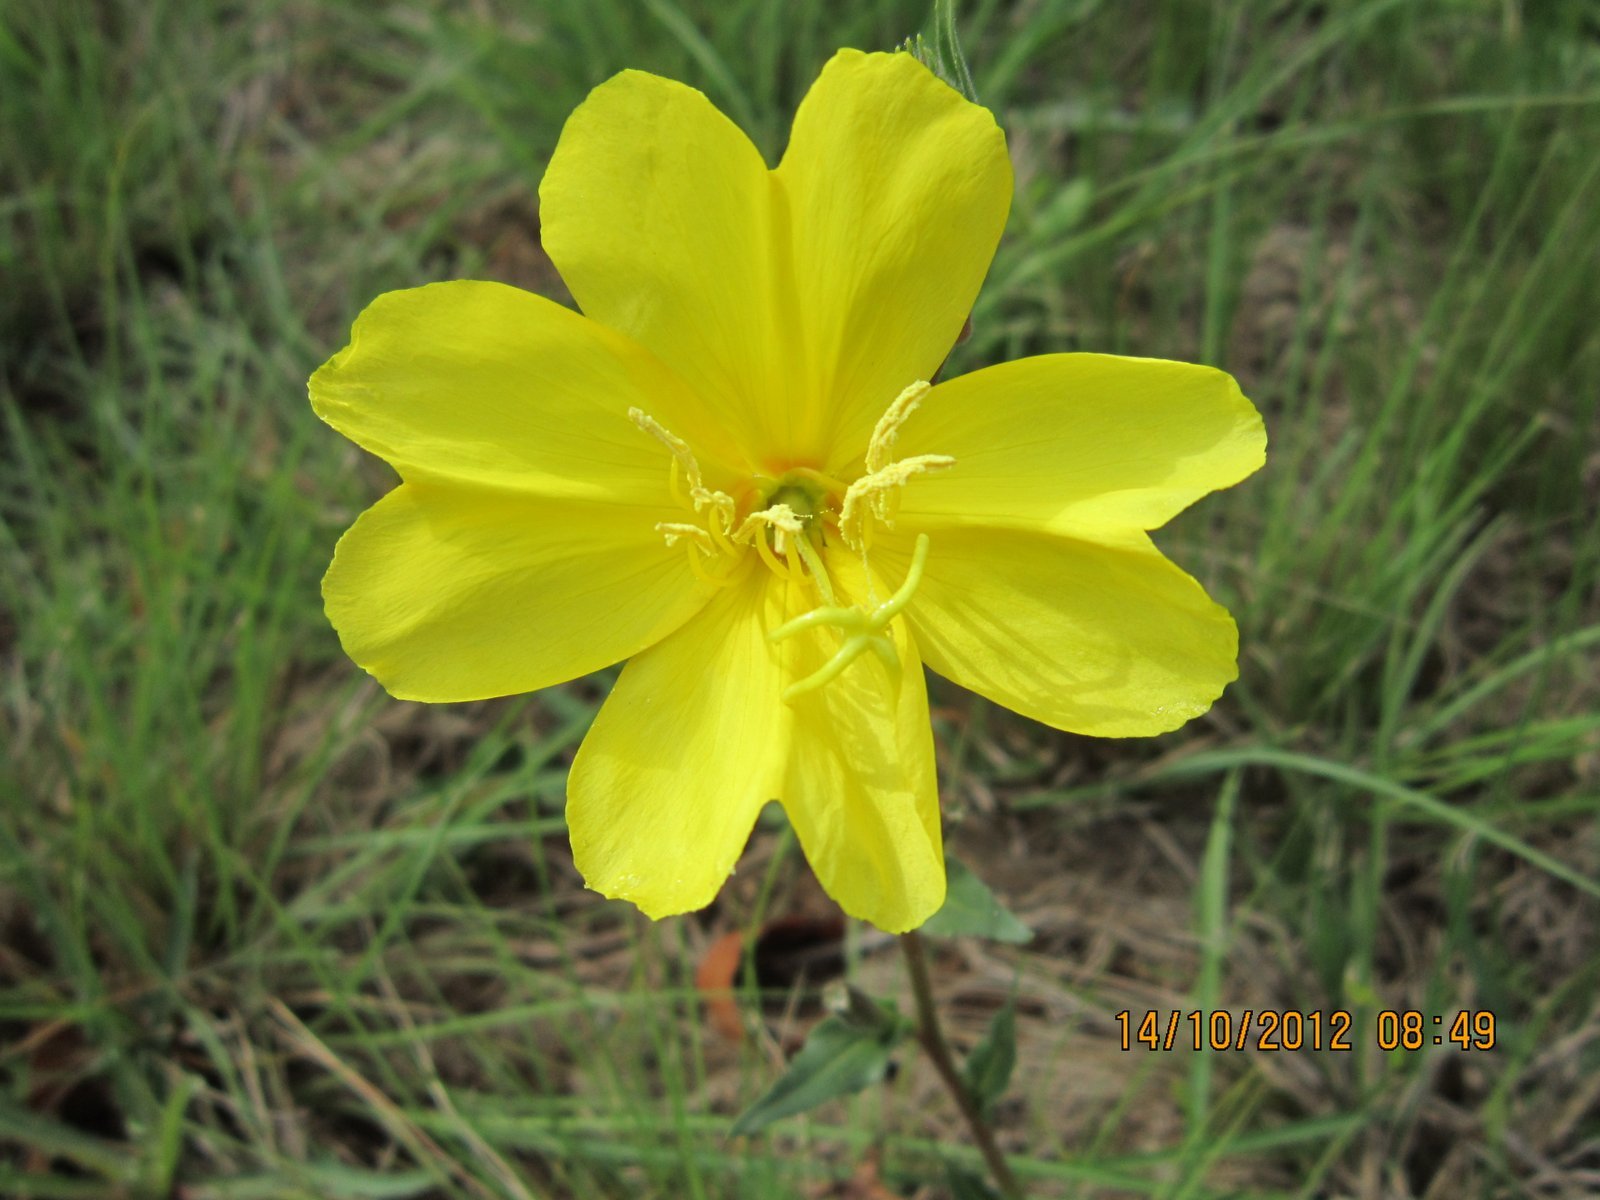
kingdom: Plantae
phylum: Tracheophyta
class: Magnoliopsida
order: Myrtales
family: Onagraceae
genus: Oenothera
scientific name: Oenothera stricta
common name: Fragrant evening-primrose
